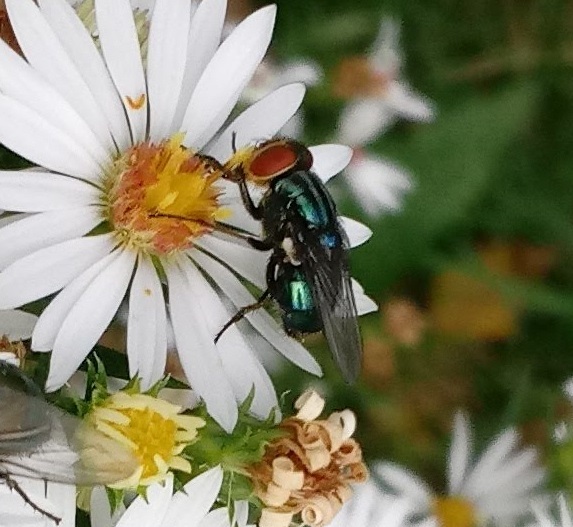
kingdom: Animalia
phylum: Arthropoda
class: Insecta
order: Diptera
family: Calliphoridae
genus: Cochliomyia
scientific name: Cochliomyia macellaria
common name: Secondary screwworm
